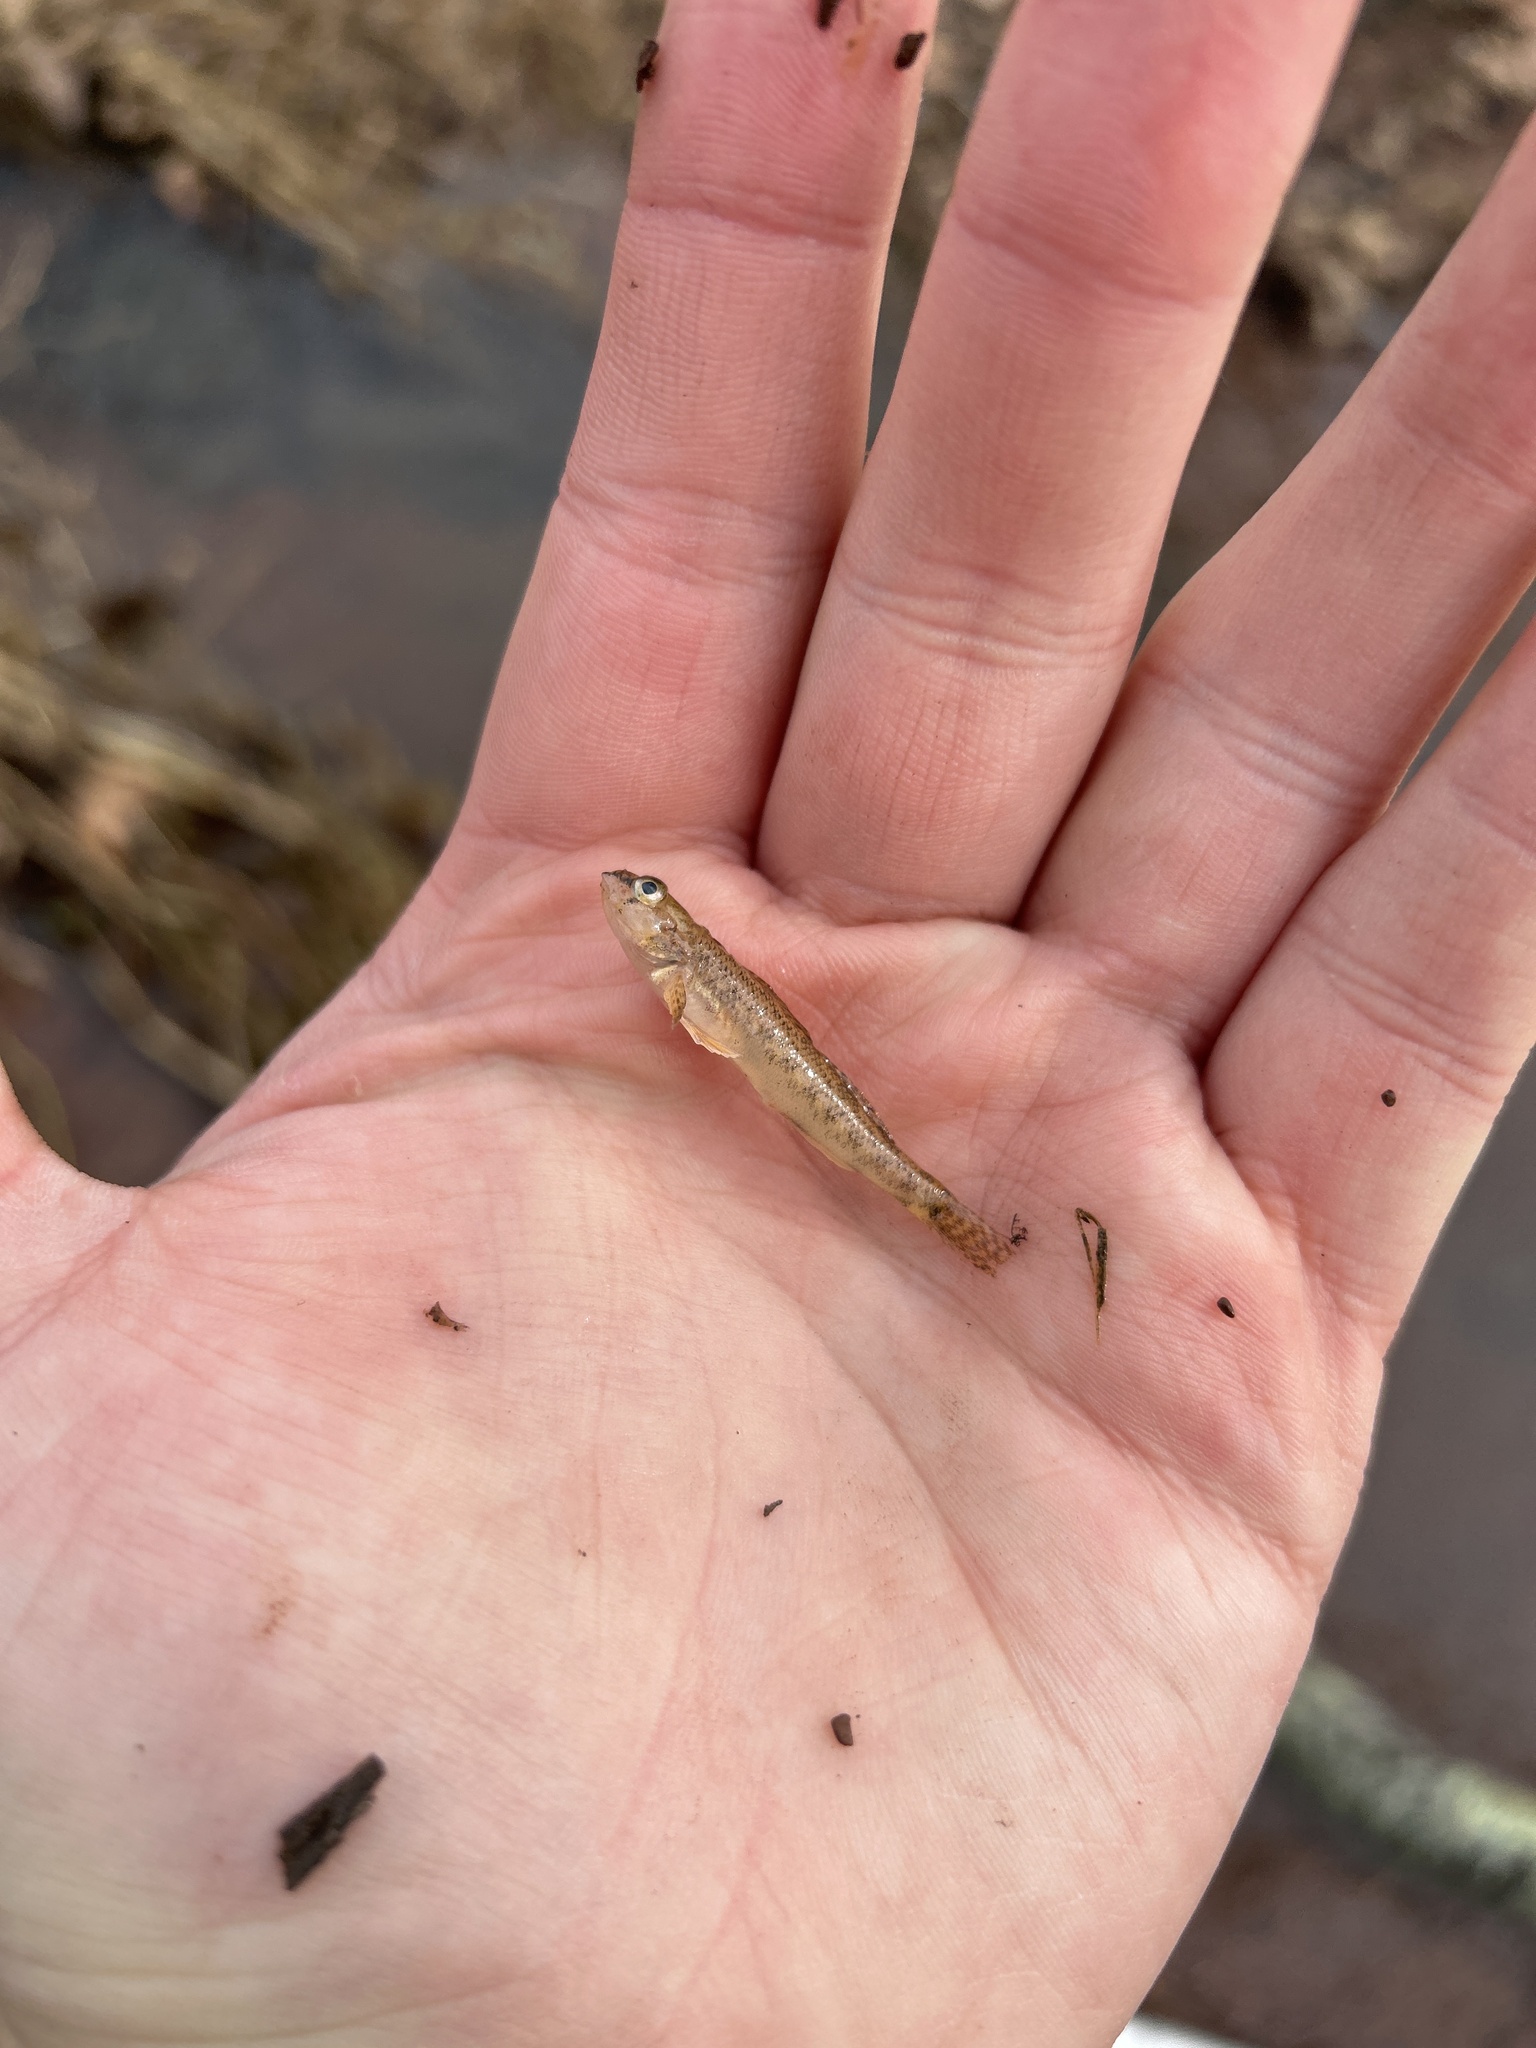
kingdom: Animalia
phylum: Chordata
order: Perciformes
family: Percidae
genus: Etheostoma
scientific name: Etheostoma olmstedi
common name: Tessellated darter
